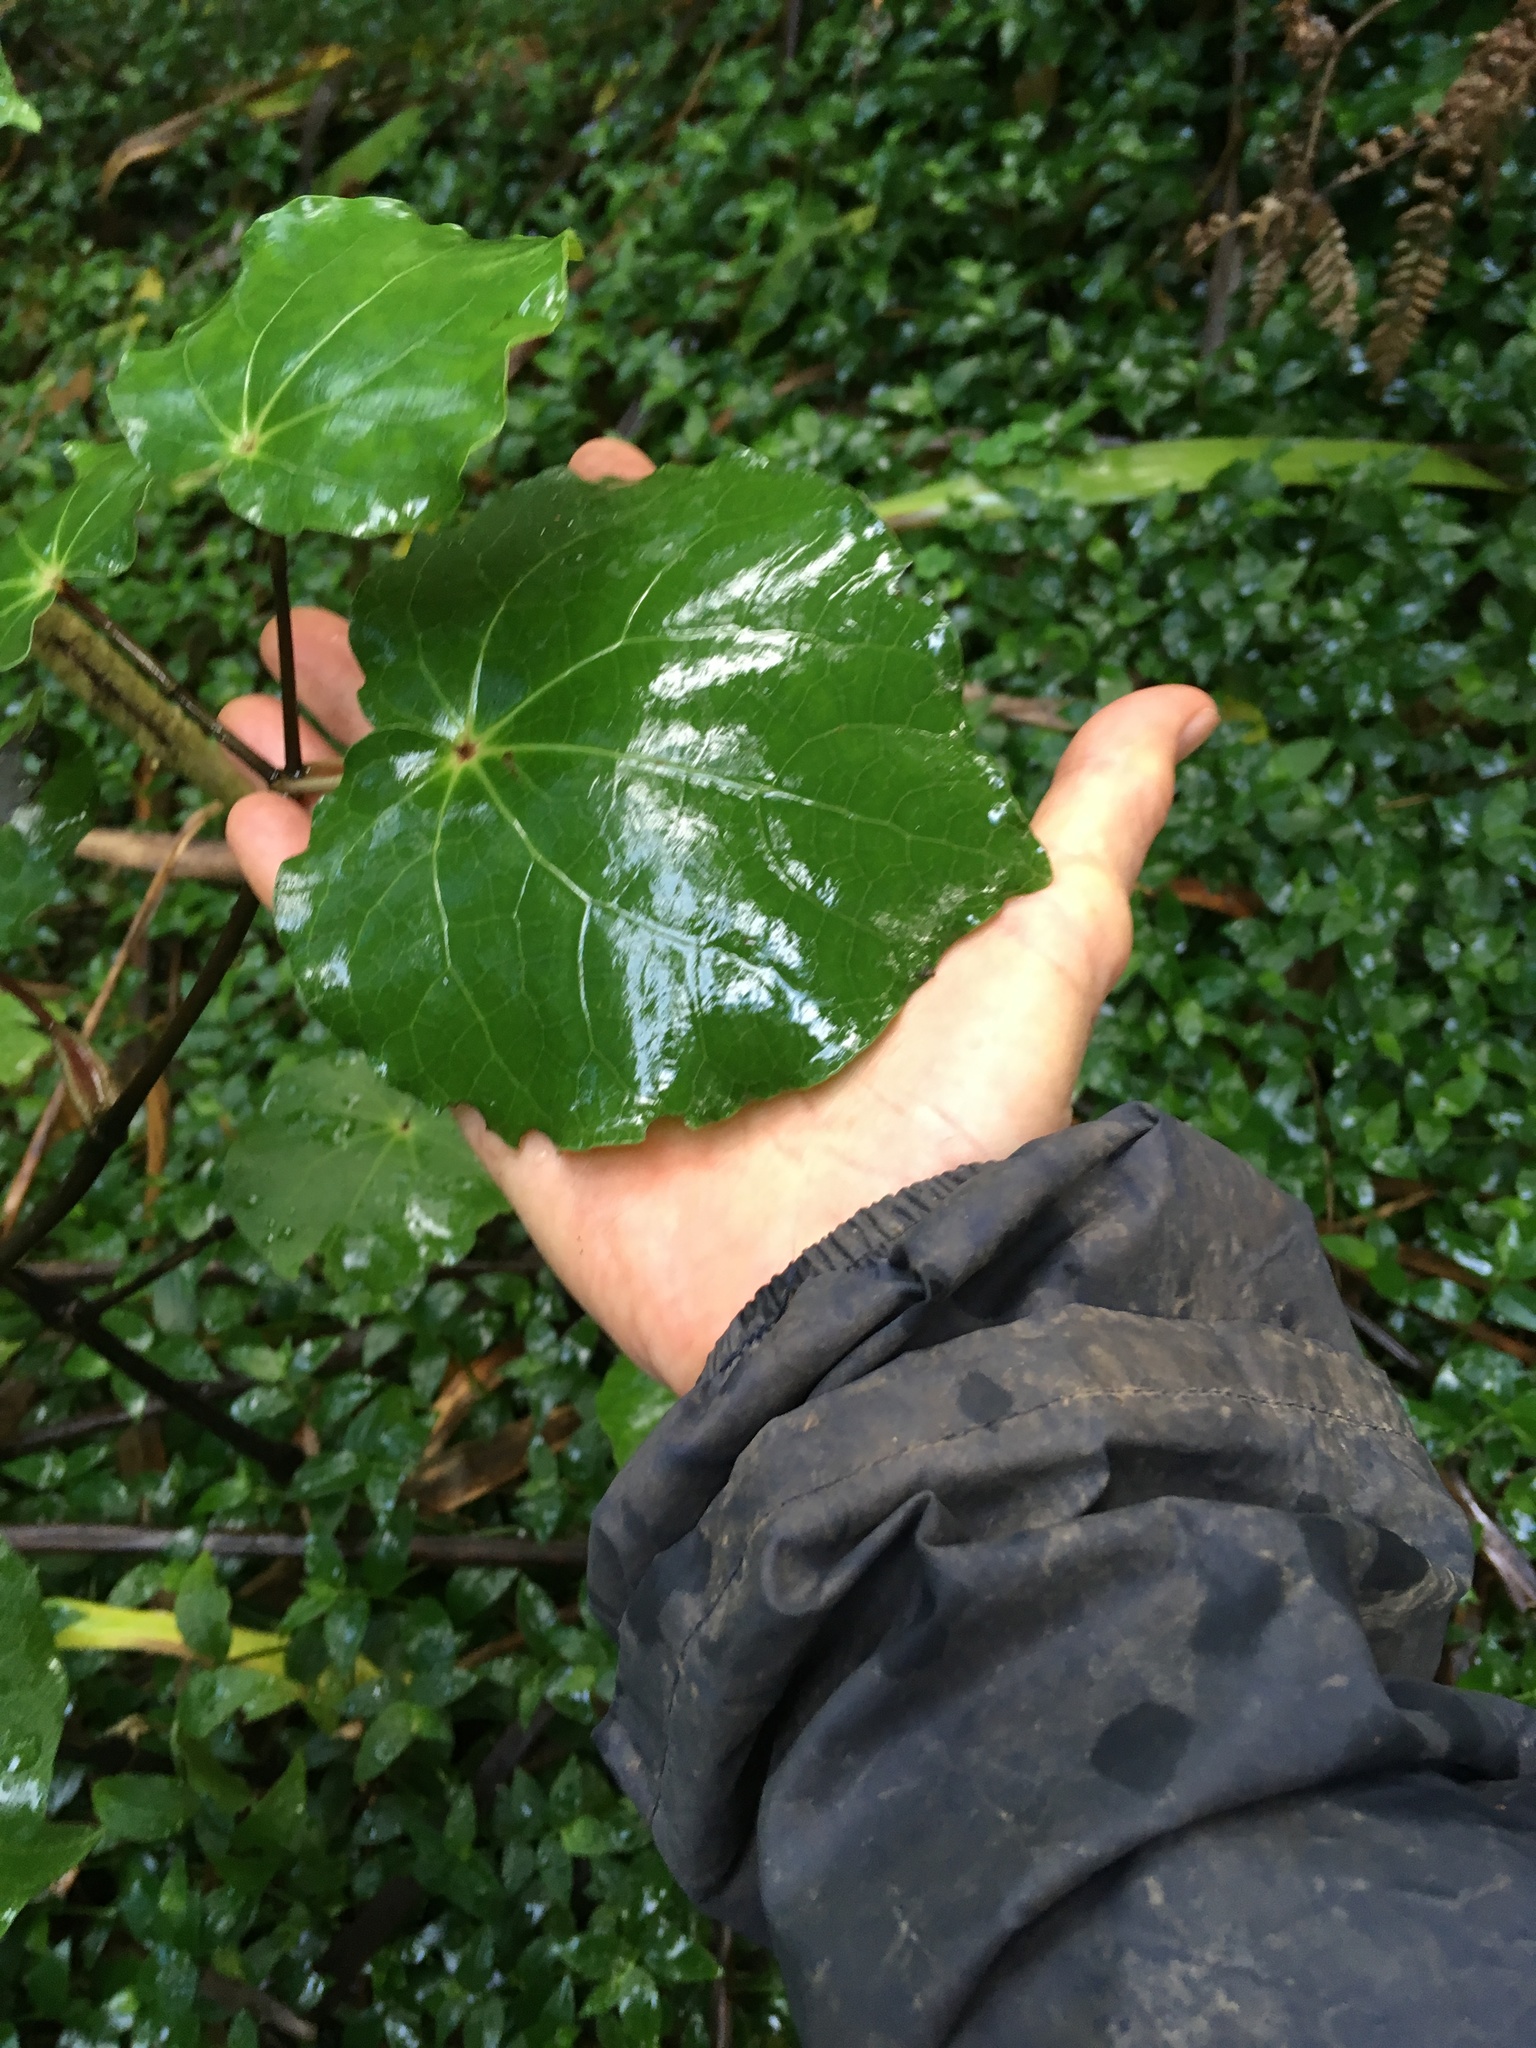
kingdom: Plantae
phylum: Tracheophyta
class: Magnoliopsida
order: Piperales
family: Piperaceae
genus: Macropiper
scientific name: Macropiper excelsum
